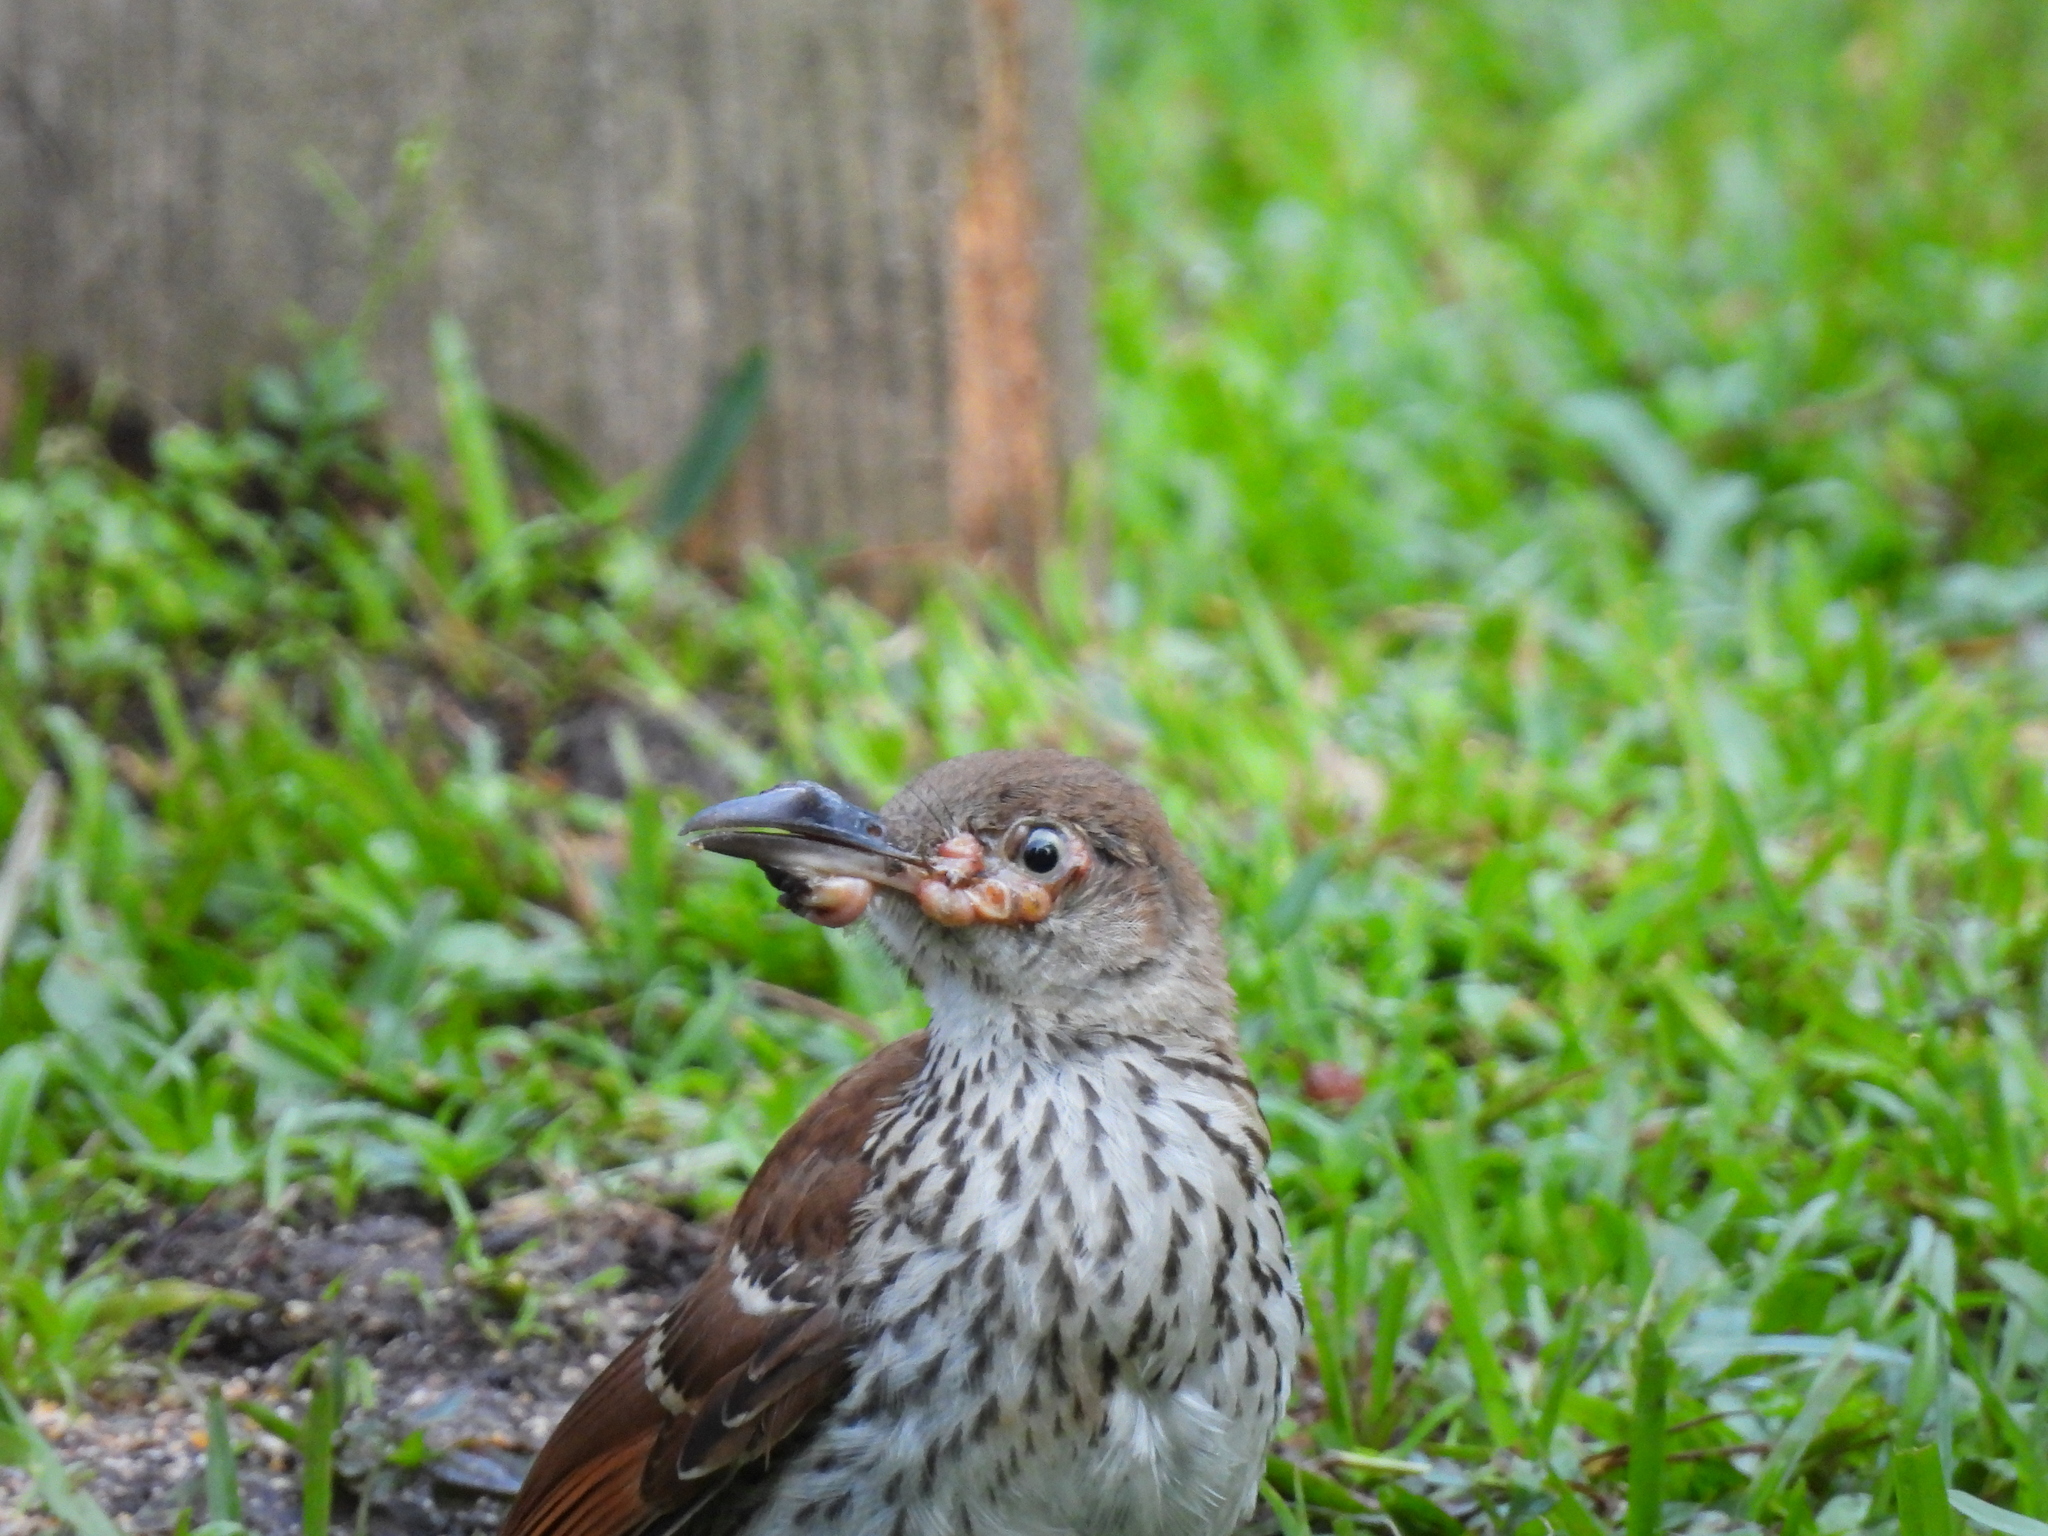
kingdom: Animalia
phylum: Chordata
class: Aves
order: Passeriformes
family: Mimidae
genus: Toxostoma
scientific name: Toxostoma rufum
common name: Brown thrasher
